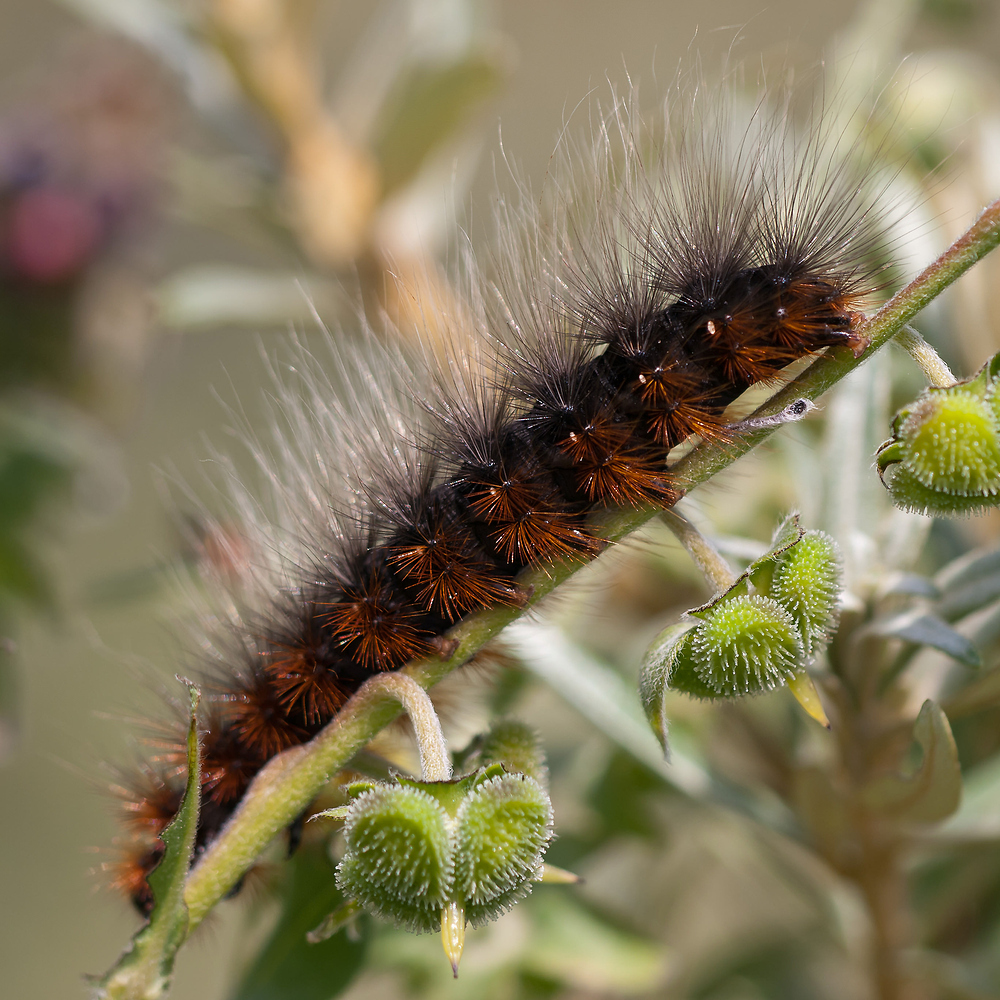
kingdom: Animalia
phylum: Arthropoda
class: Insecta
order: Lepidoptera
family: Erebidae
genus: Arctia
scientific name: Arctia caja
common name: Garden tiger
